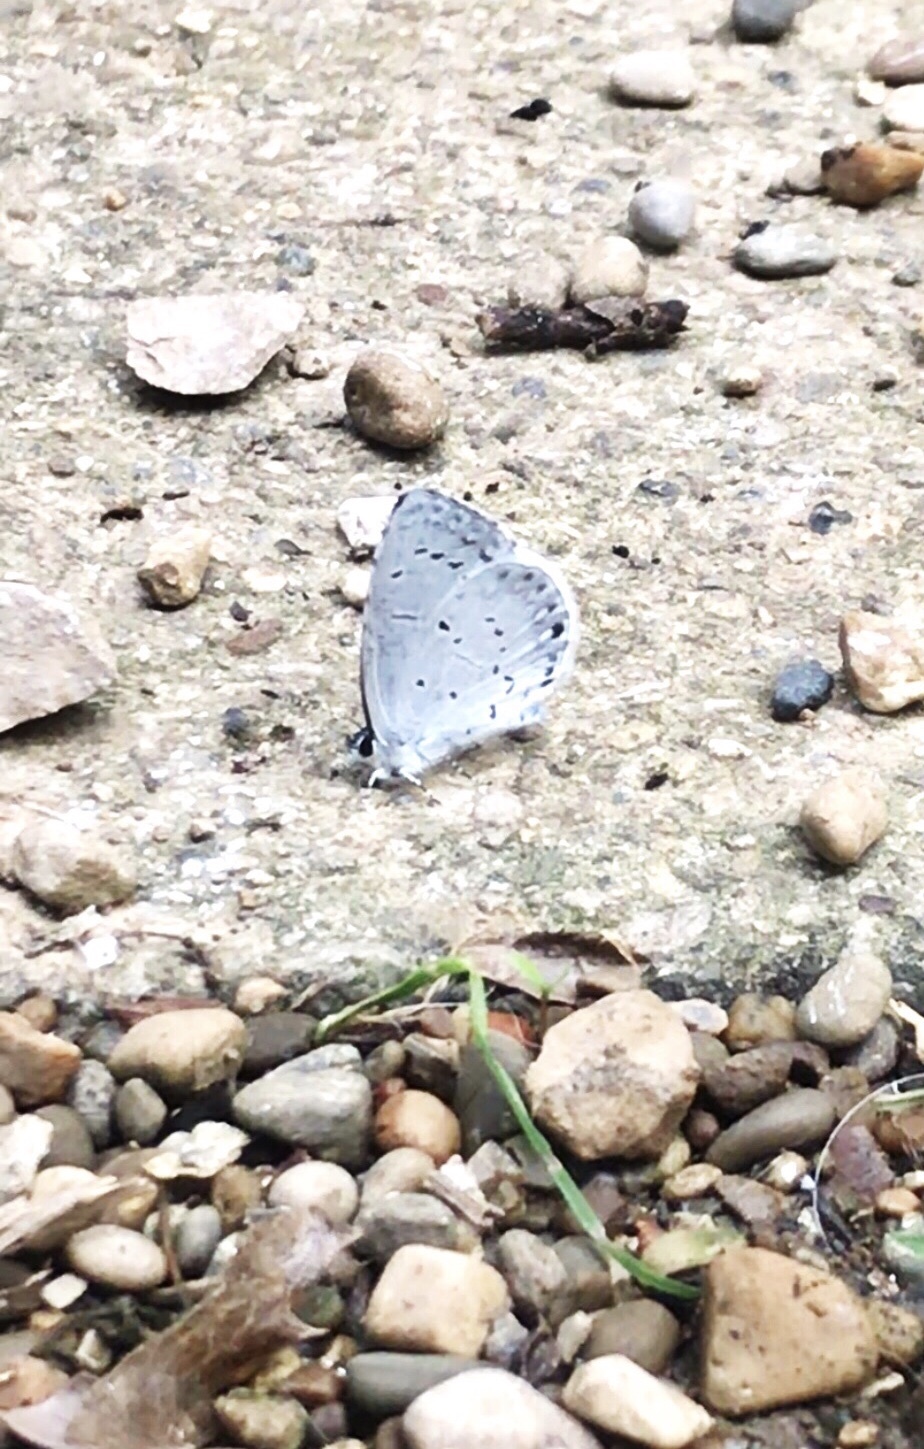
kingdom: Animalia
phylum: Arthropoda
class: Insecta
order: Lepidoptera
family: Lycaenidae
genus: Cyaniris
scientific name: Cyaniris neglecta
